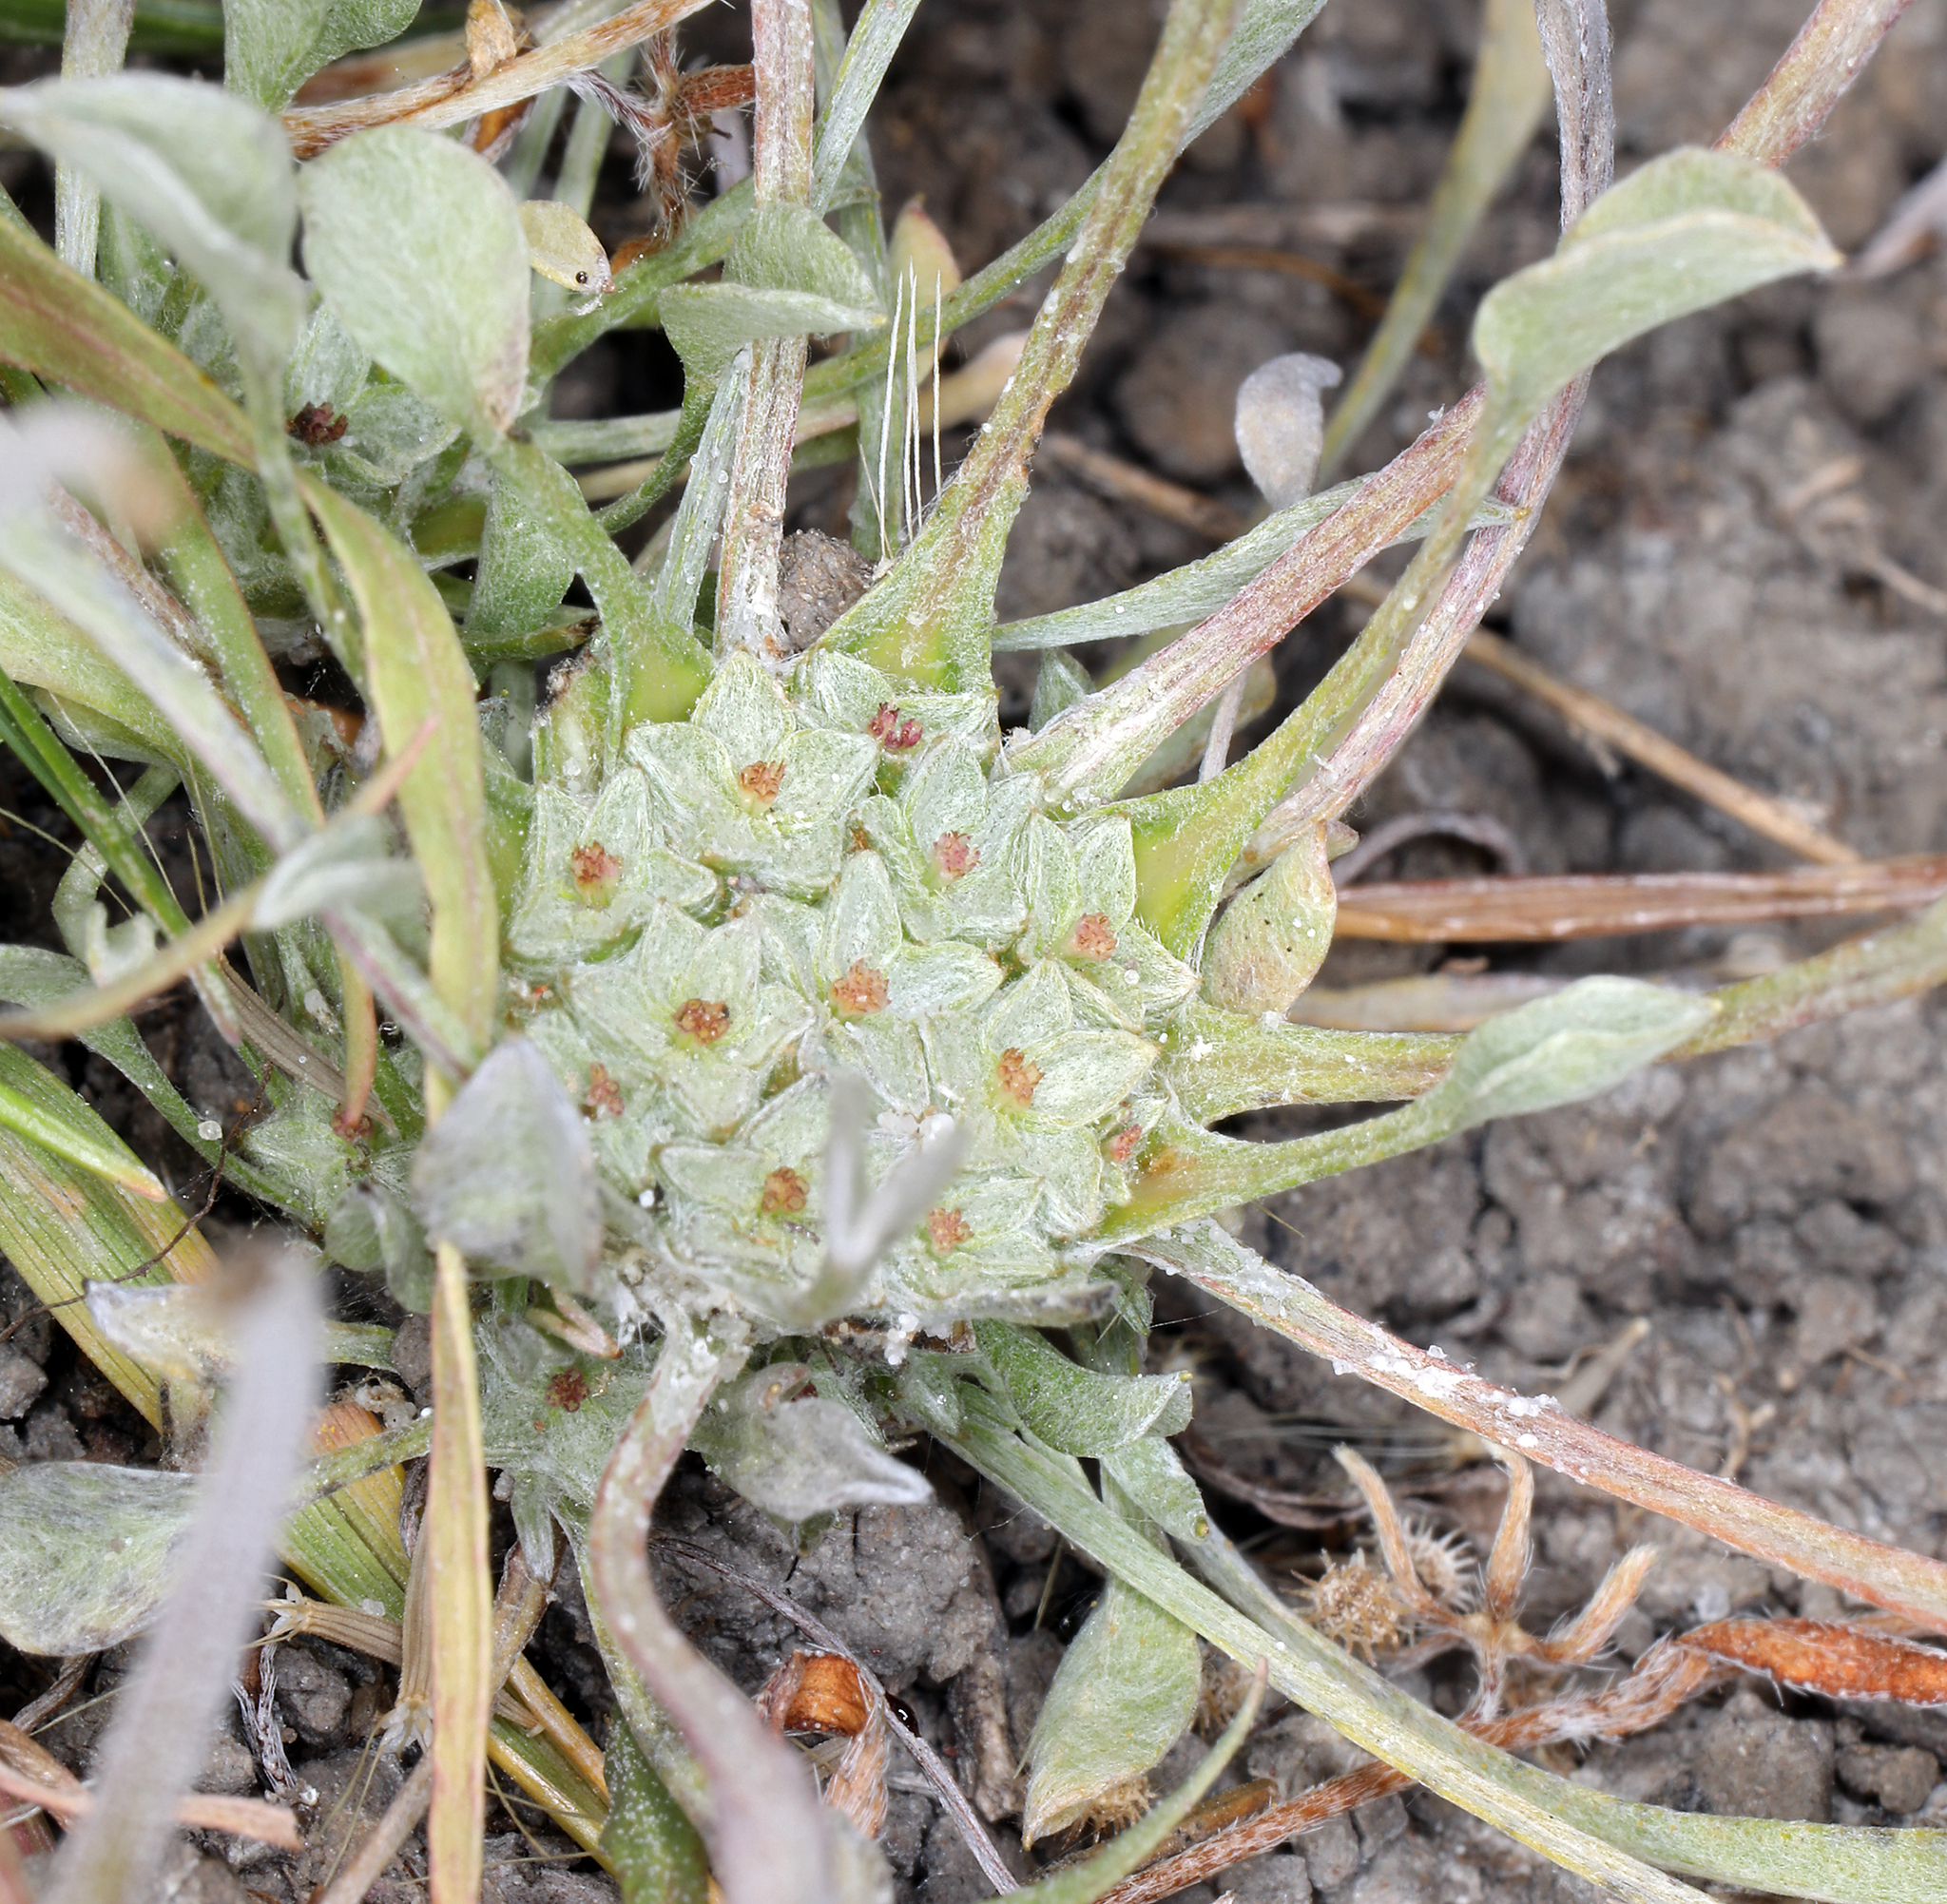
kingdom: Plantae
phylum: Tracheophyta
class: Magnoliopsida
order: Asterales
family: Asteraceae
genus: Hesperevax
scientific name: Hesperevax caulescens
